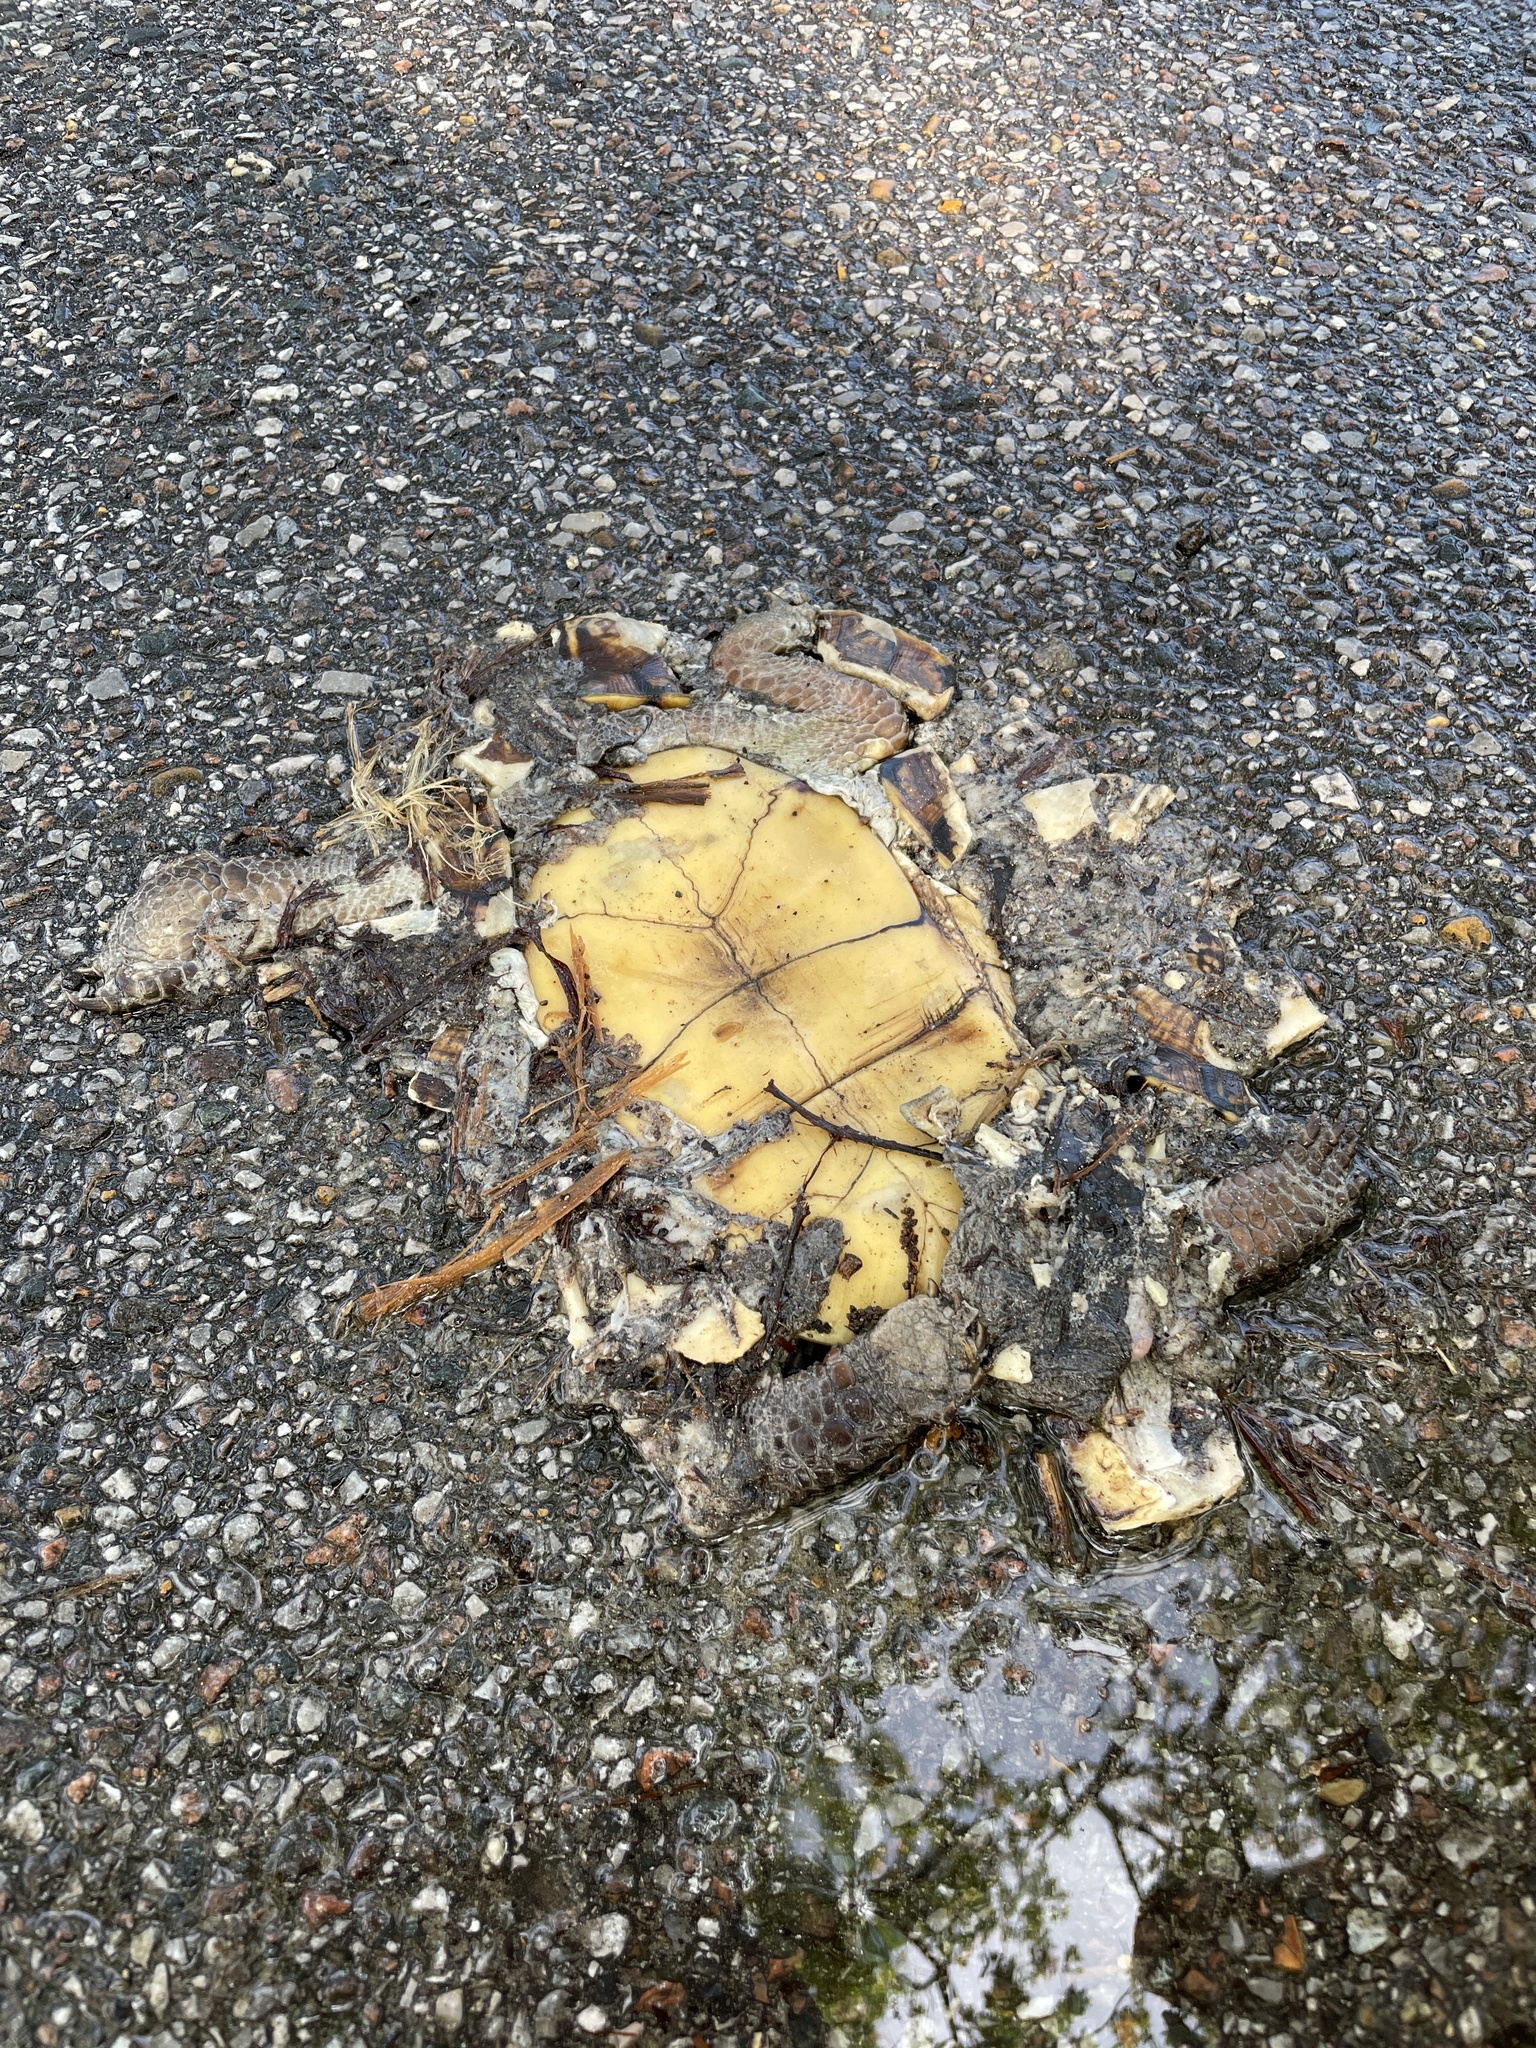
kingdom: Animalia
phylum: Chordata
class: Testudines
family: Emydidae
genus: Terrapene
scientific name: Terrapene carolina
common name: Common box turtle
